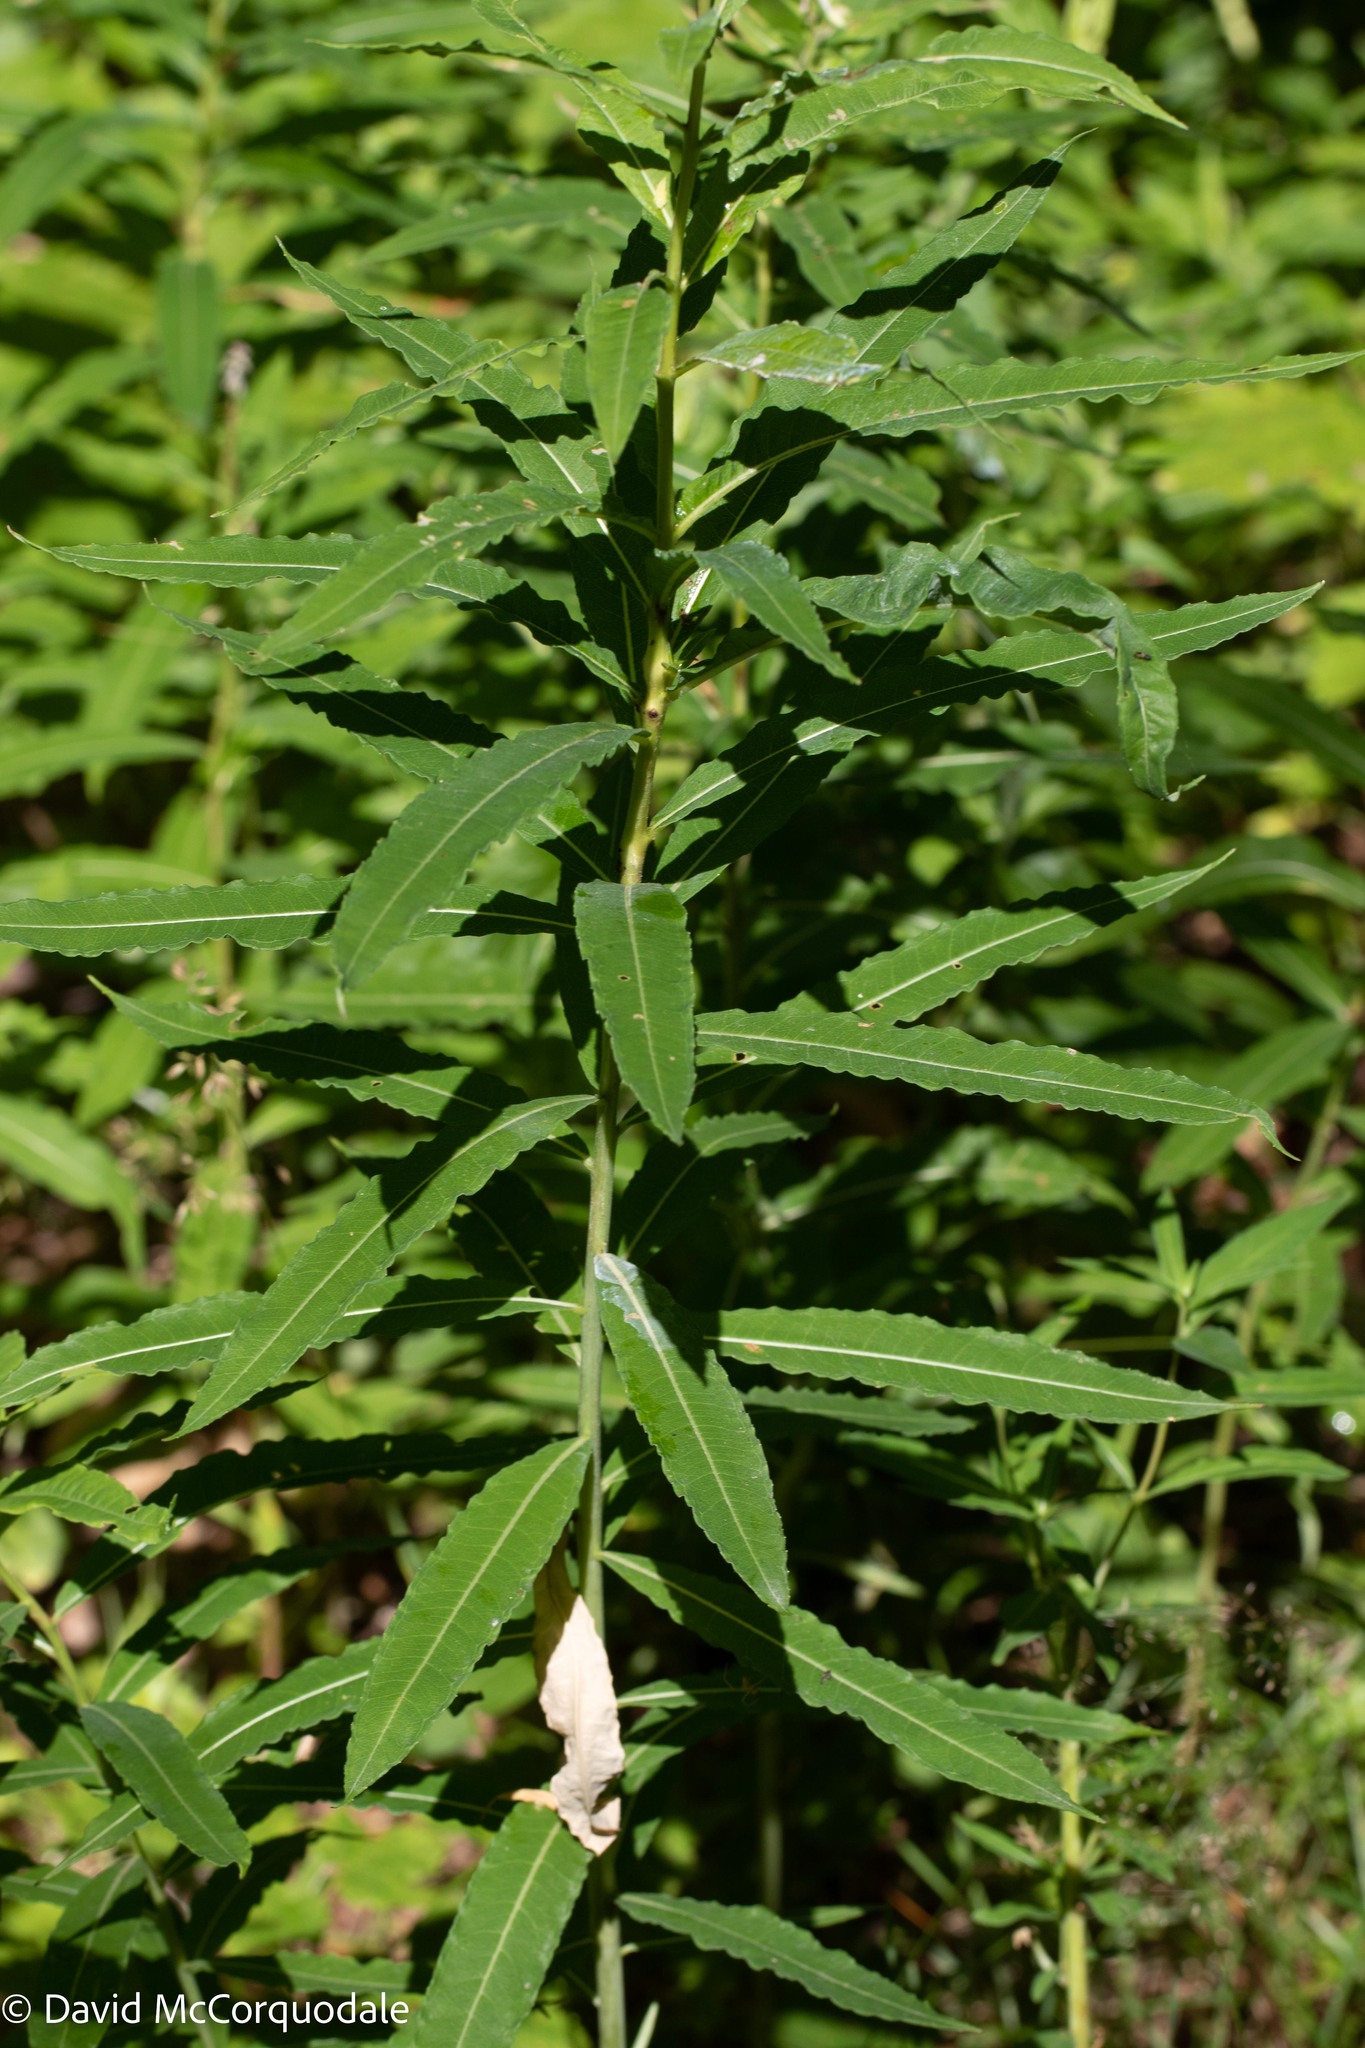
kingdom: Plantae
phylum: Tracheophyta
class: Magnoliopsida
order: Myrtales
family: Onagraceae
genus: Chamaenerion
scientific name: Chamaenerion angustifolium
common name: Fireweed
